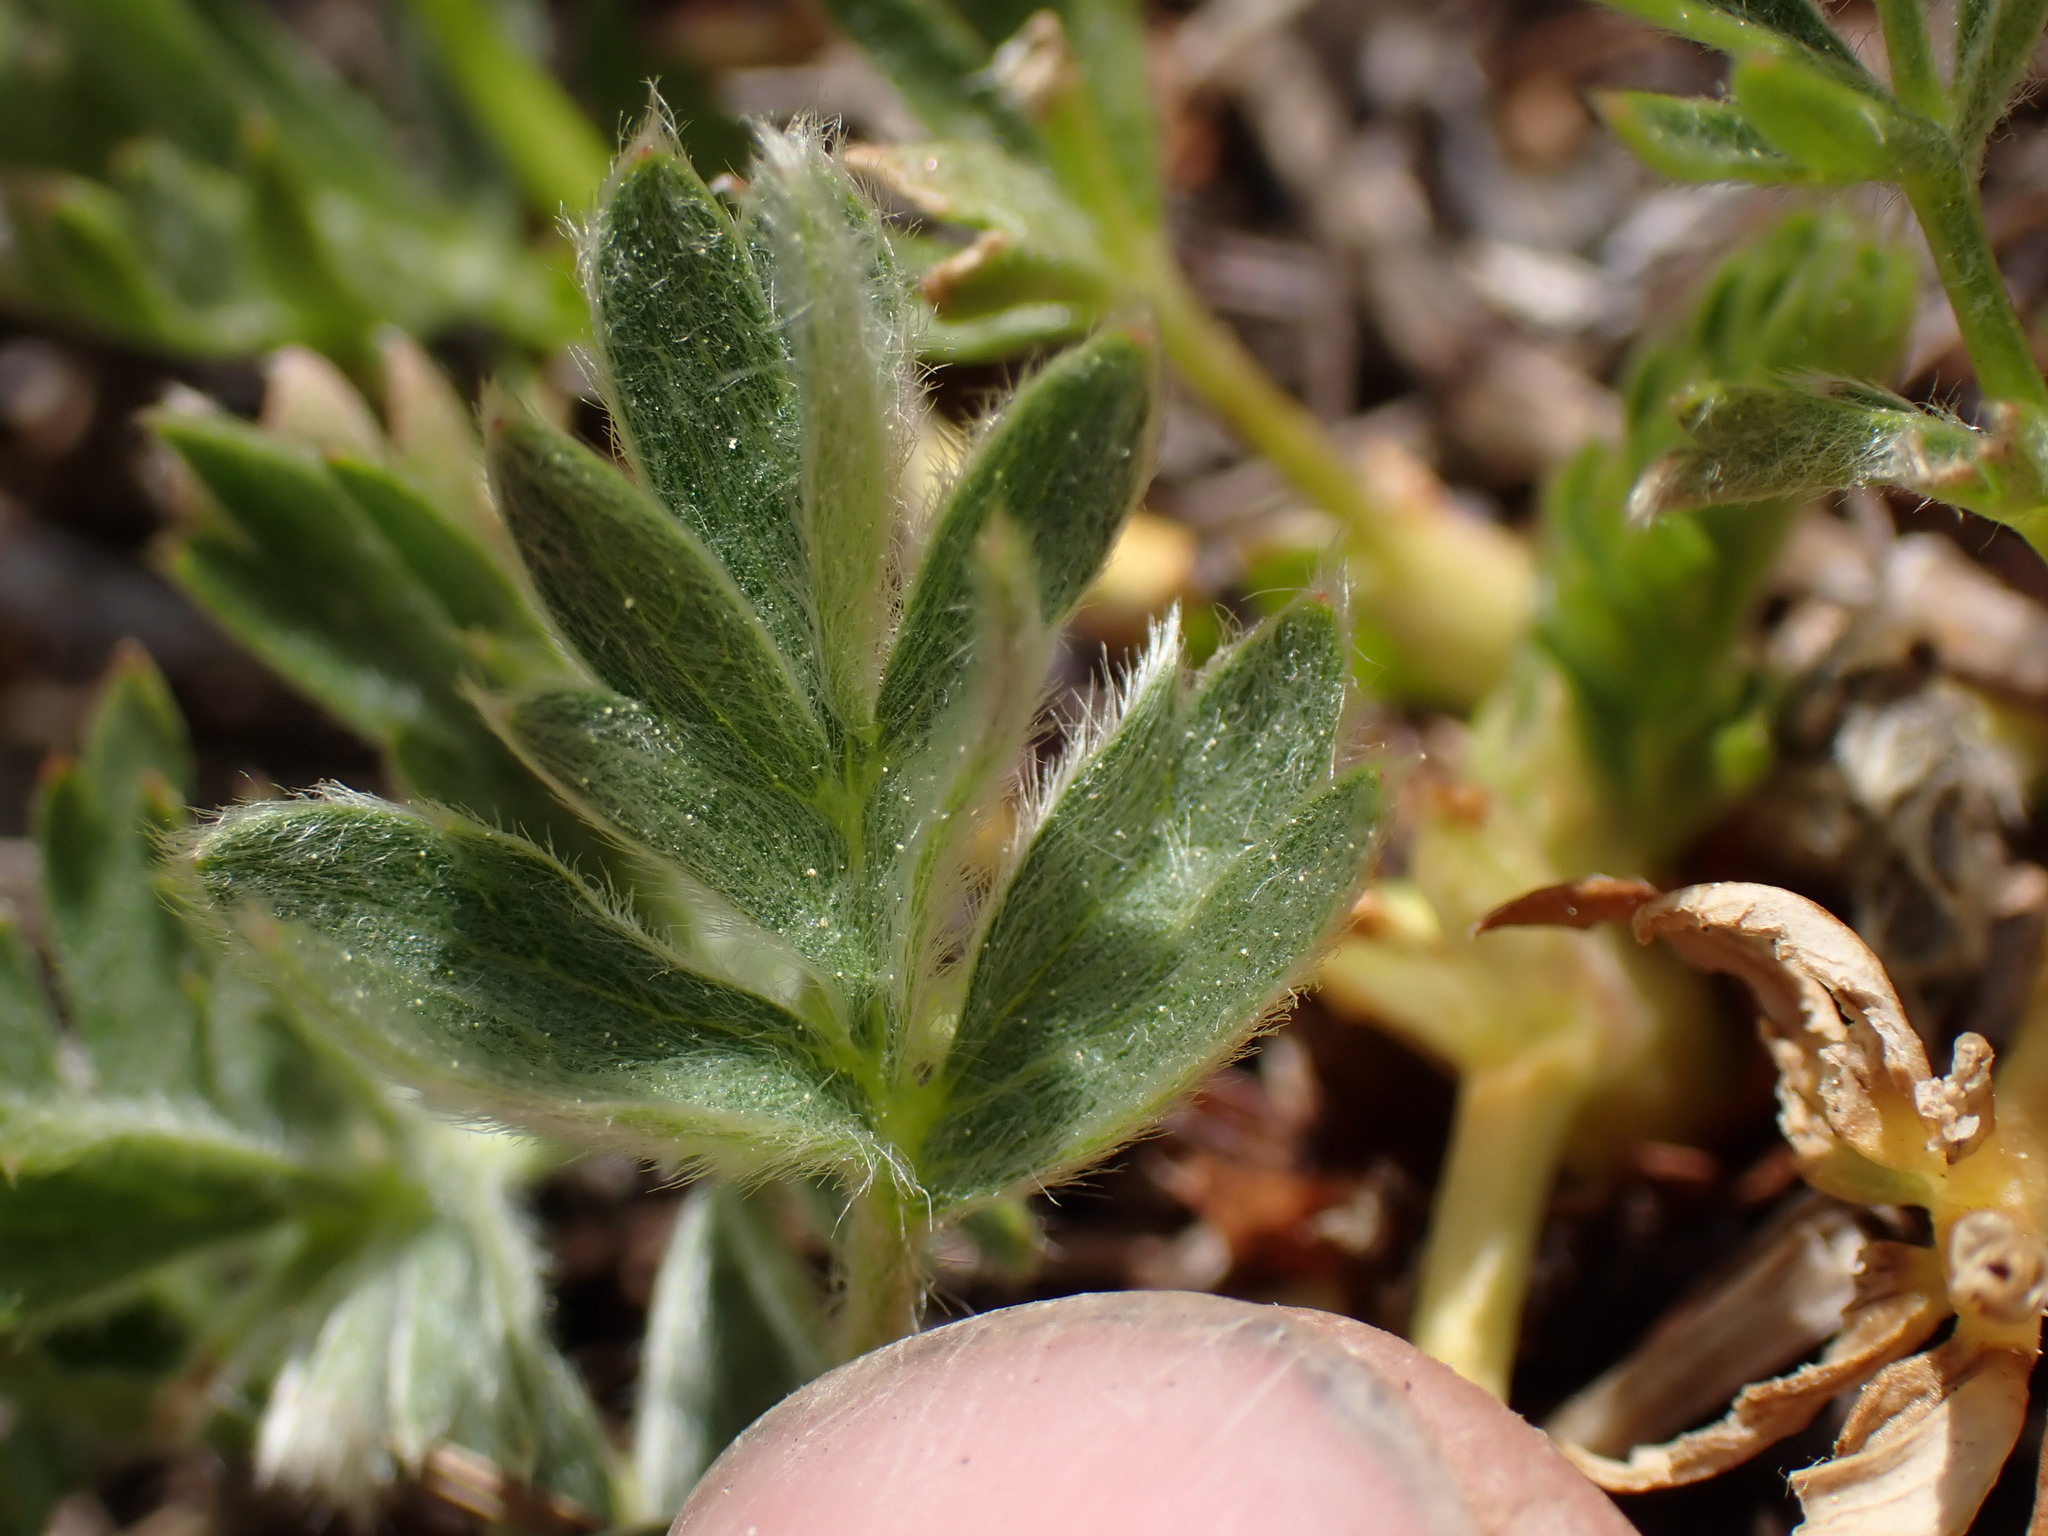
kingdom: Plantae
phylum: Tracheophyta
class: Magnoliopsida
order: Rosales
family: Rosaceae
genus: Potentilla
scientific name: Potentilla drummondii
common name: Drummond's cinquefoil
